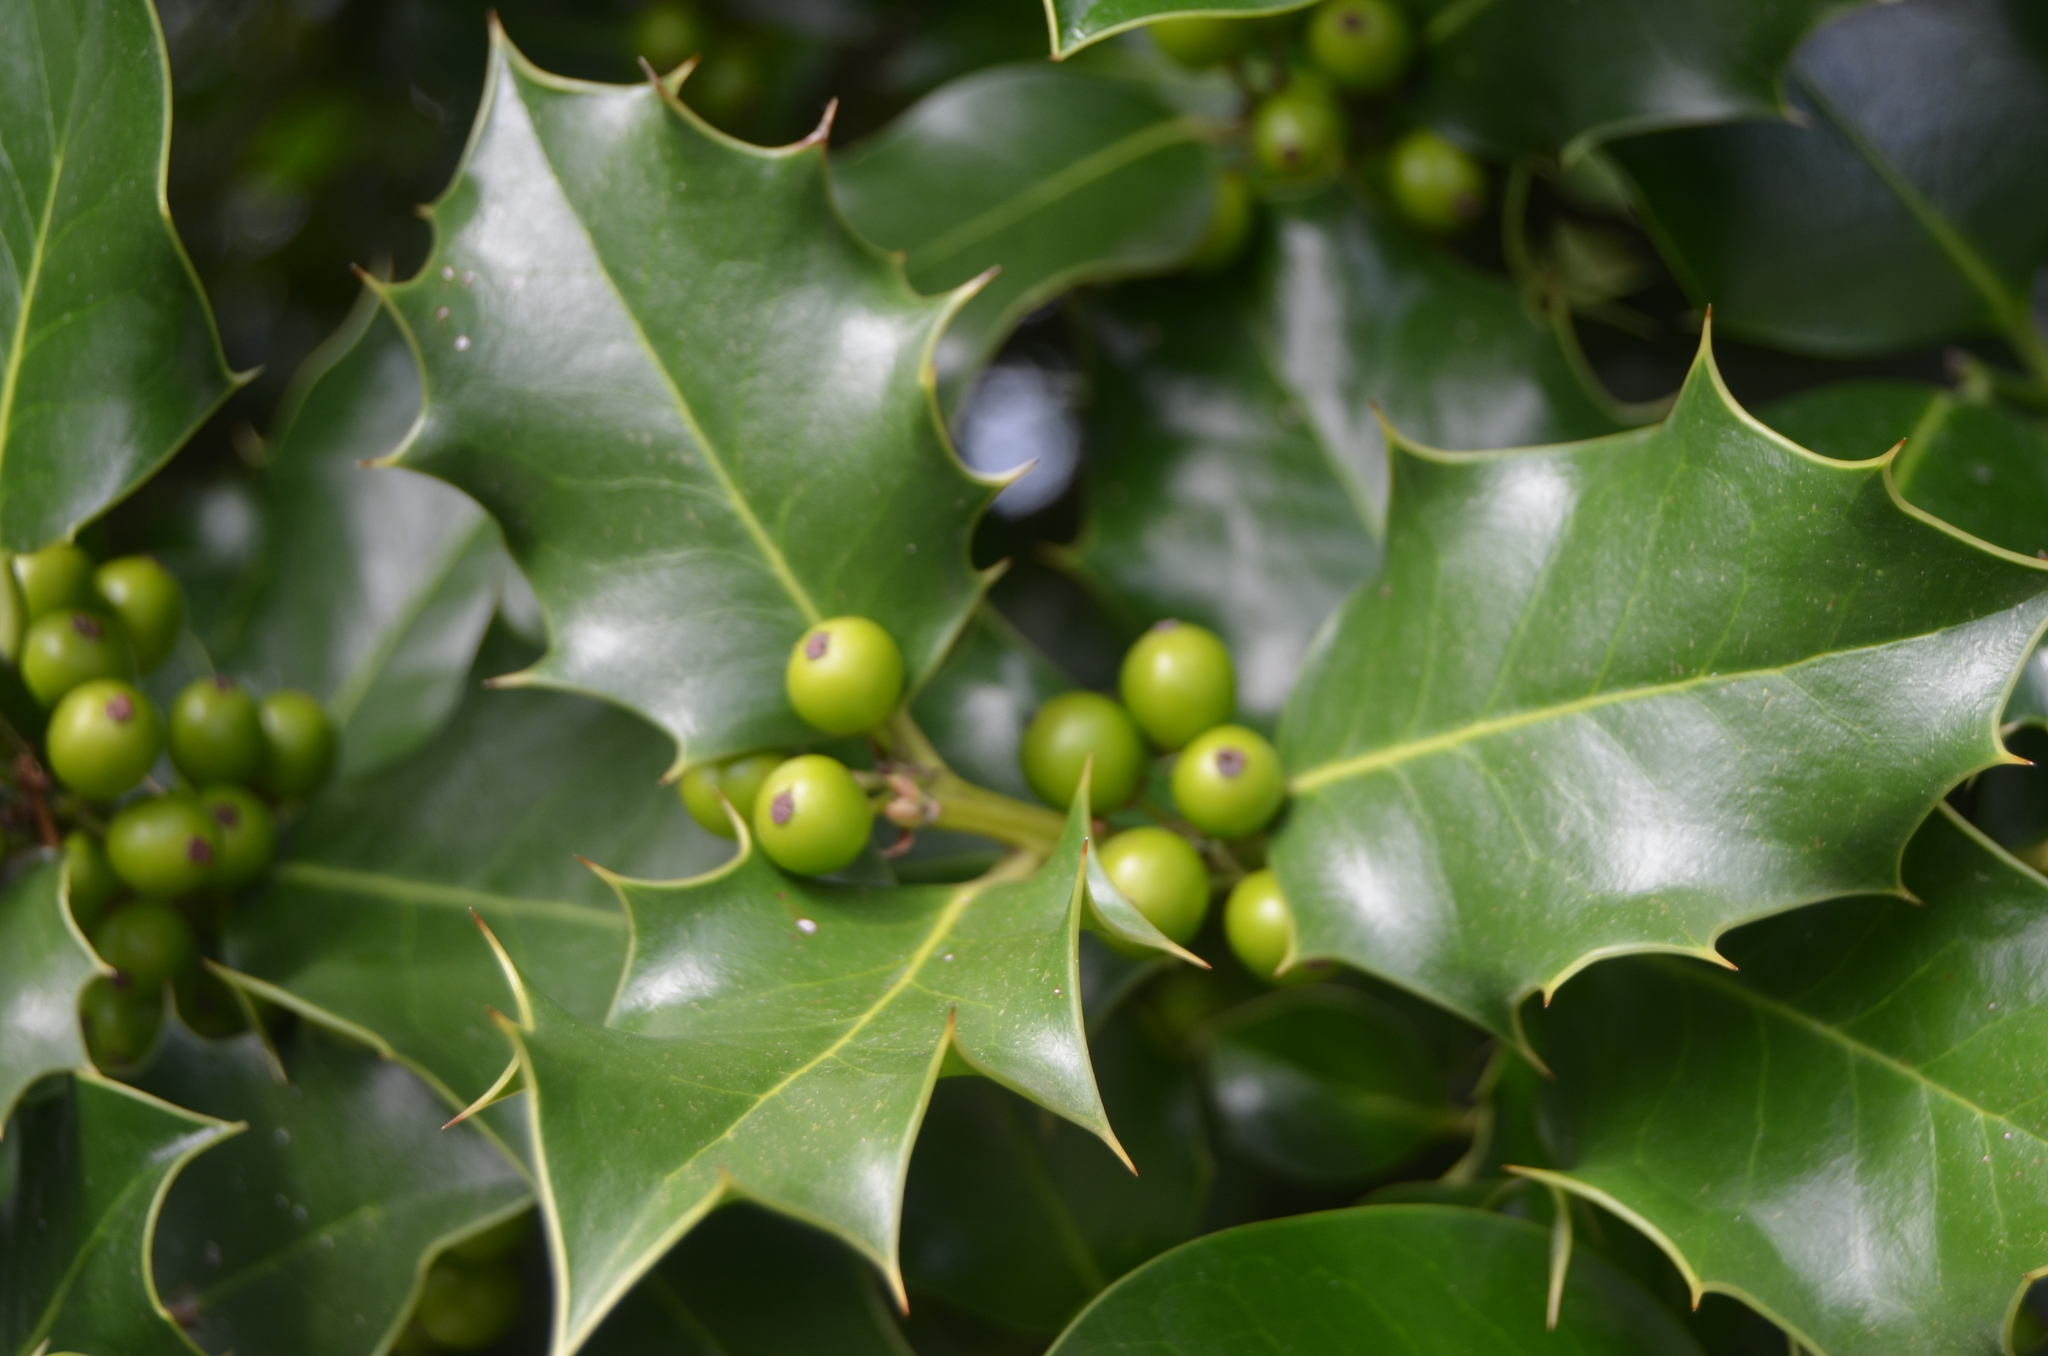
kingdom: Plantae
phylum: Tracheophyta
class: Magnoliopsida
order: Aquifoliales
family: Aquifoliaceae
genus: Ilex
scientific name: Ilex aquifolium
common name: English holly
